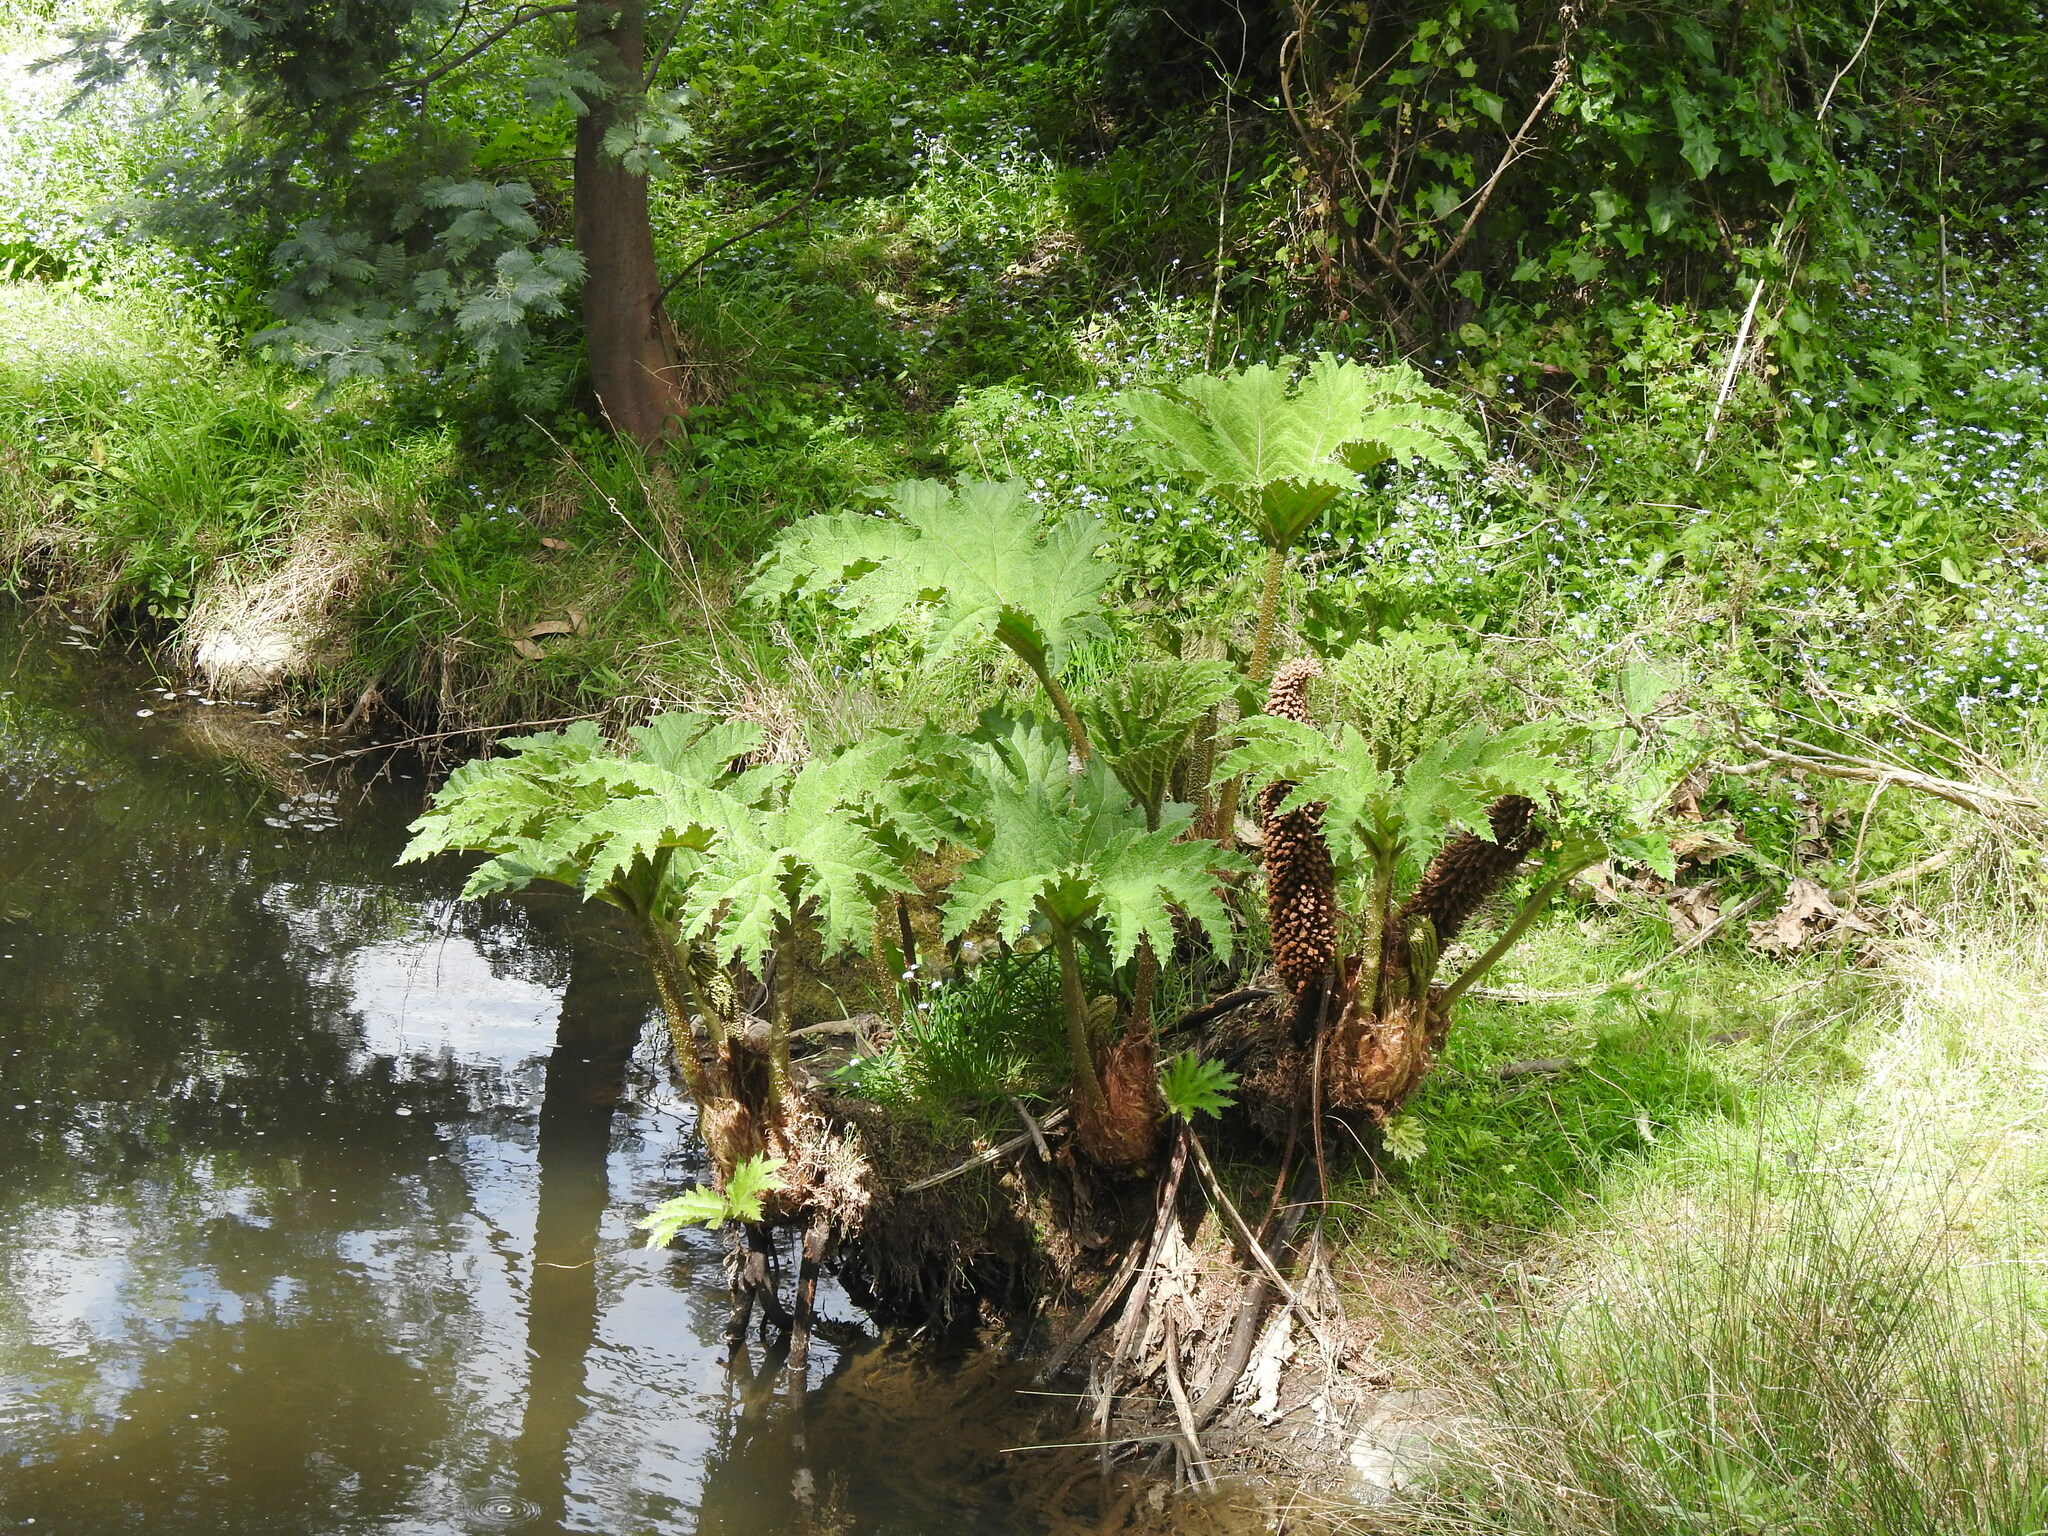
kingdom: Plantae
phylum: Tracheophyta
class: Magnoliopsida
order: Gunnerales
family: Gunneraceae
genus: Gunnera
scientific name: Gunnera tinctoria
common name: Giant-rhubarb
